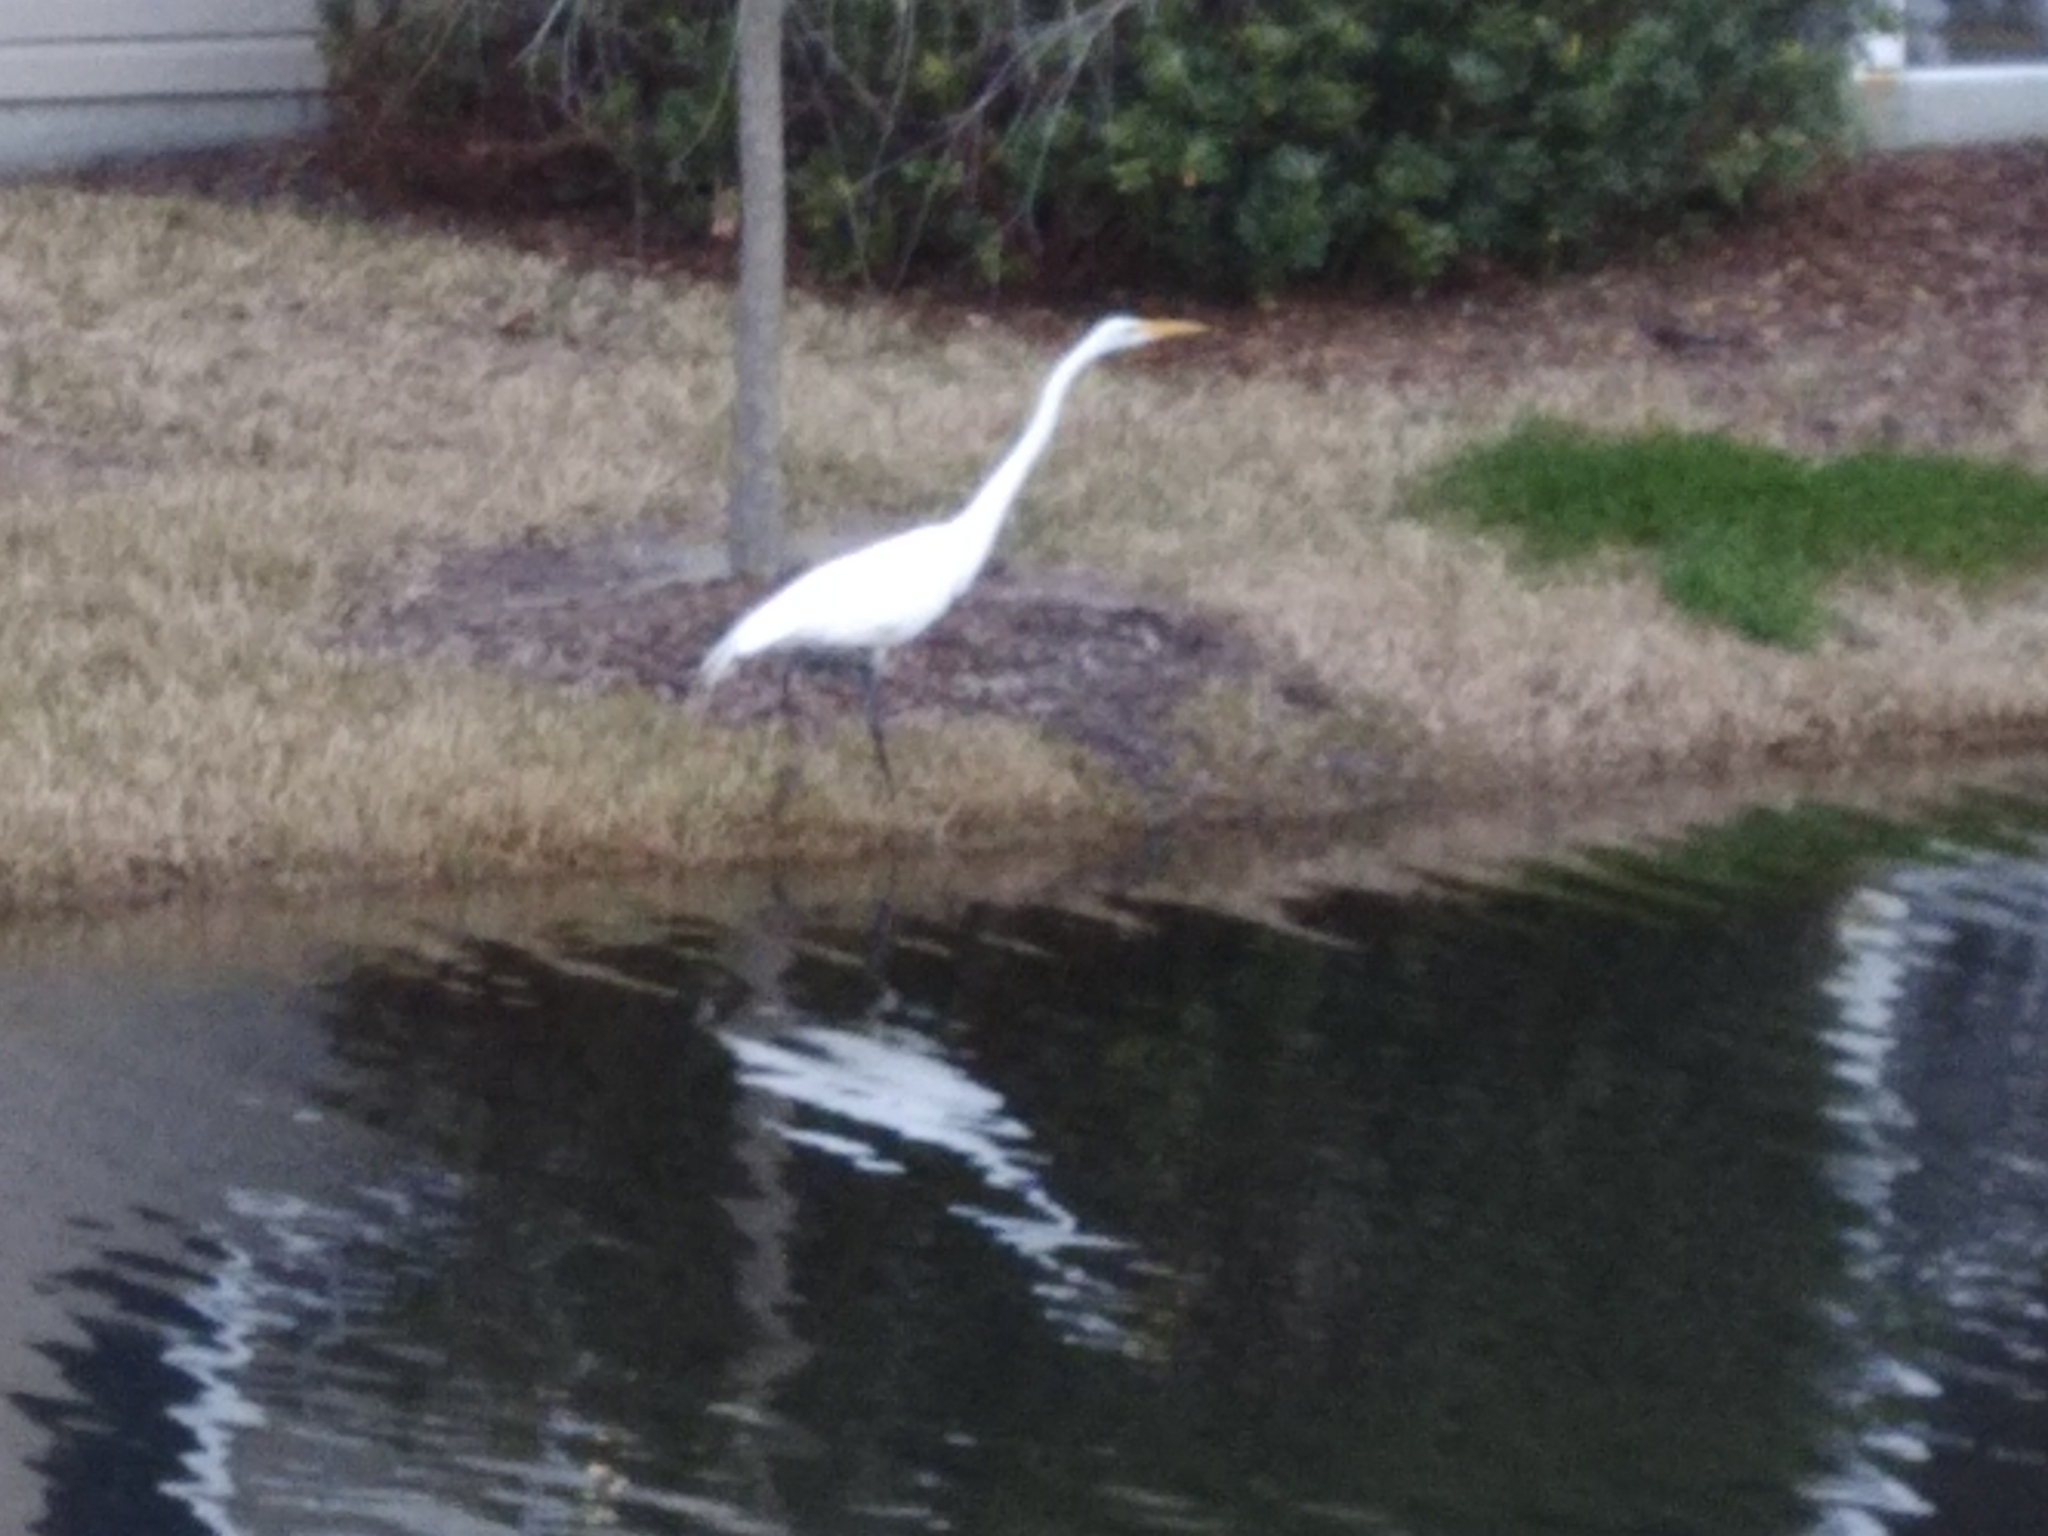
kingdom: Animalia
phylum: Chordata
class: Aves
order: Pelecaniformes
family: Ardeidae
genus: Ardea
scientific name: Ardea alba
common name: Great egret
